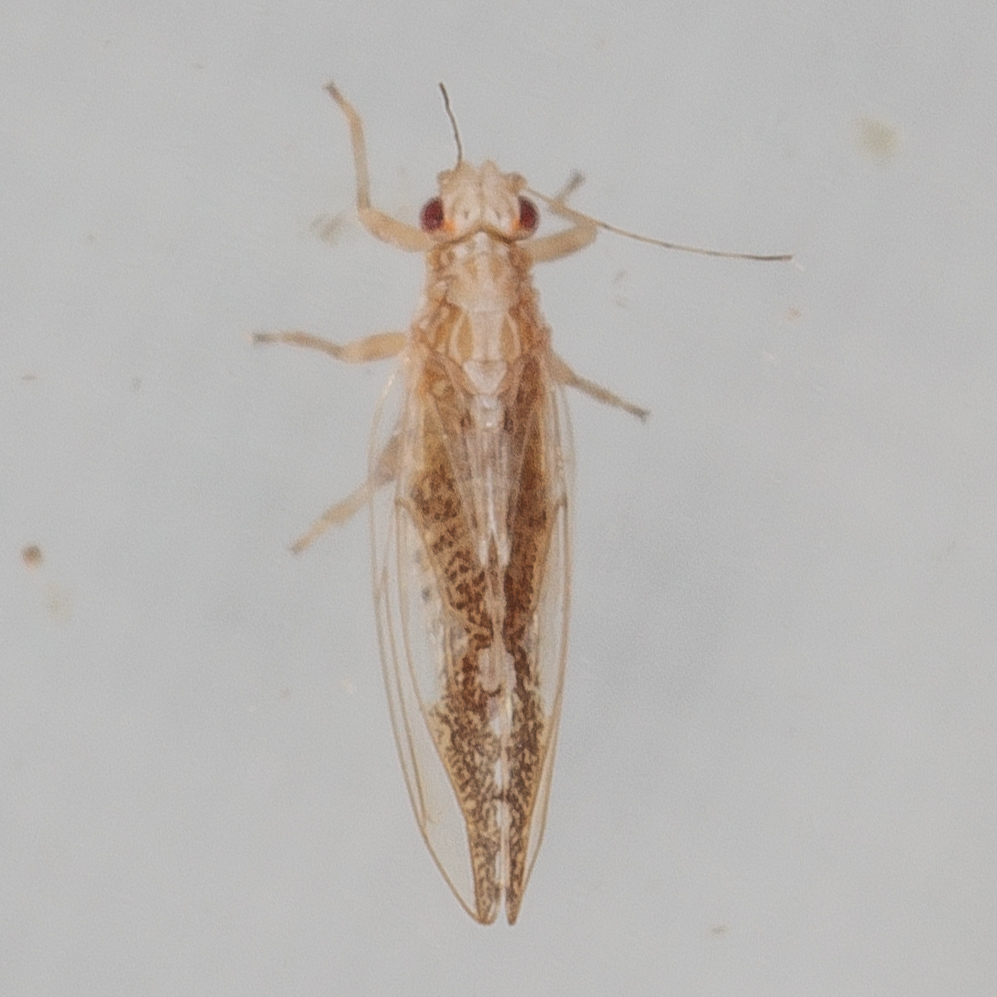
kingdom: Animalia
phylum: Arthropoda
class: Insecta
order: Hemiptera
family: Triozidae
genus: Leuronota
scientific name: Leuronota maculata
